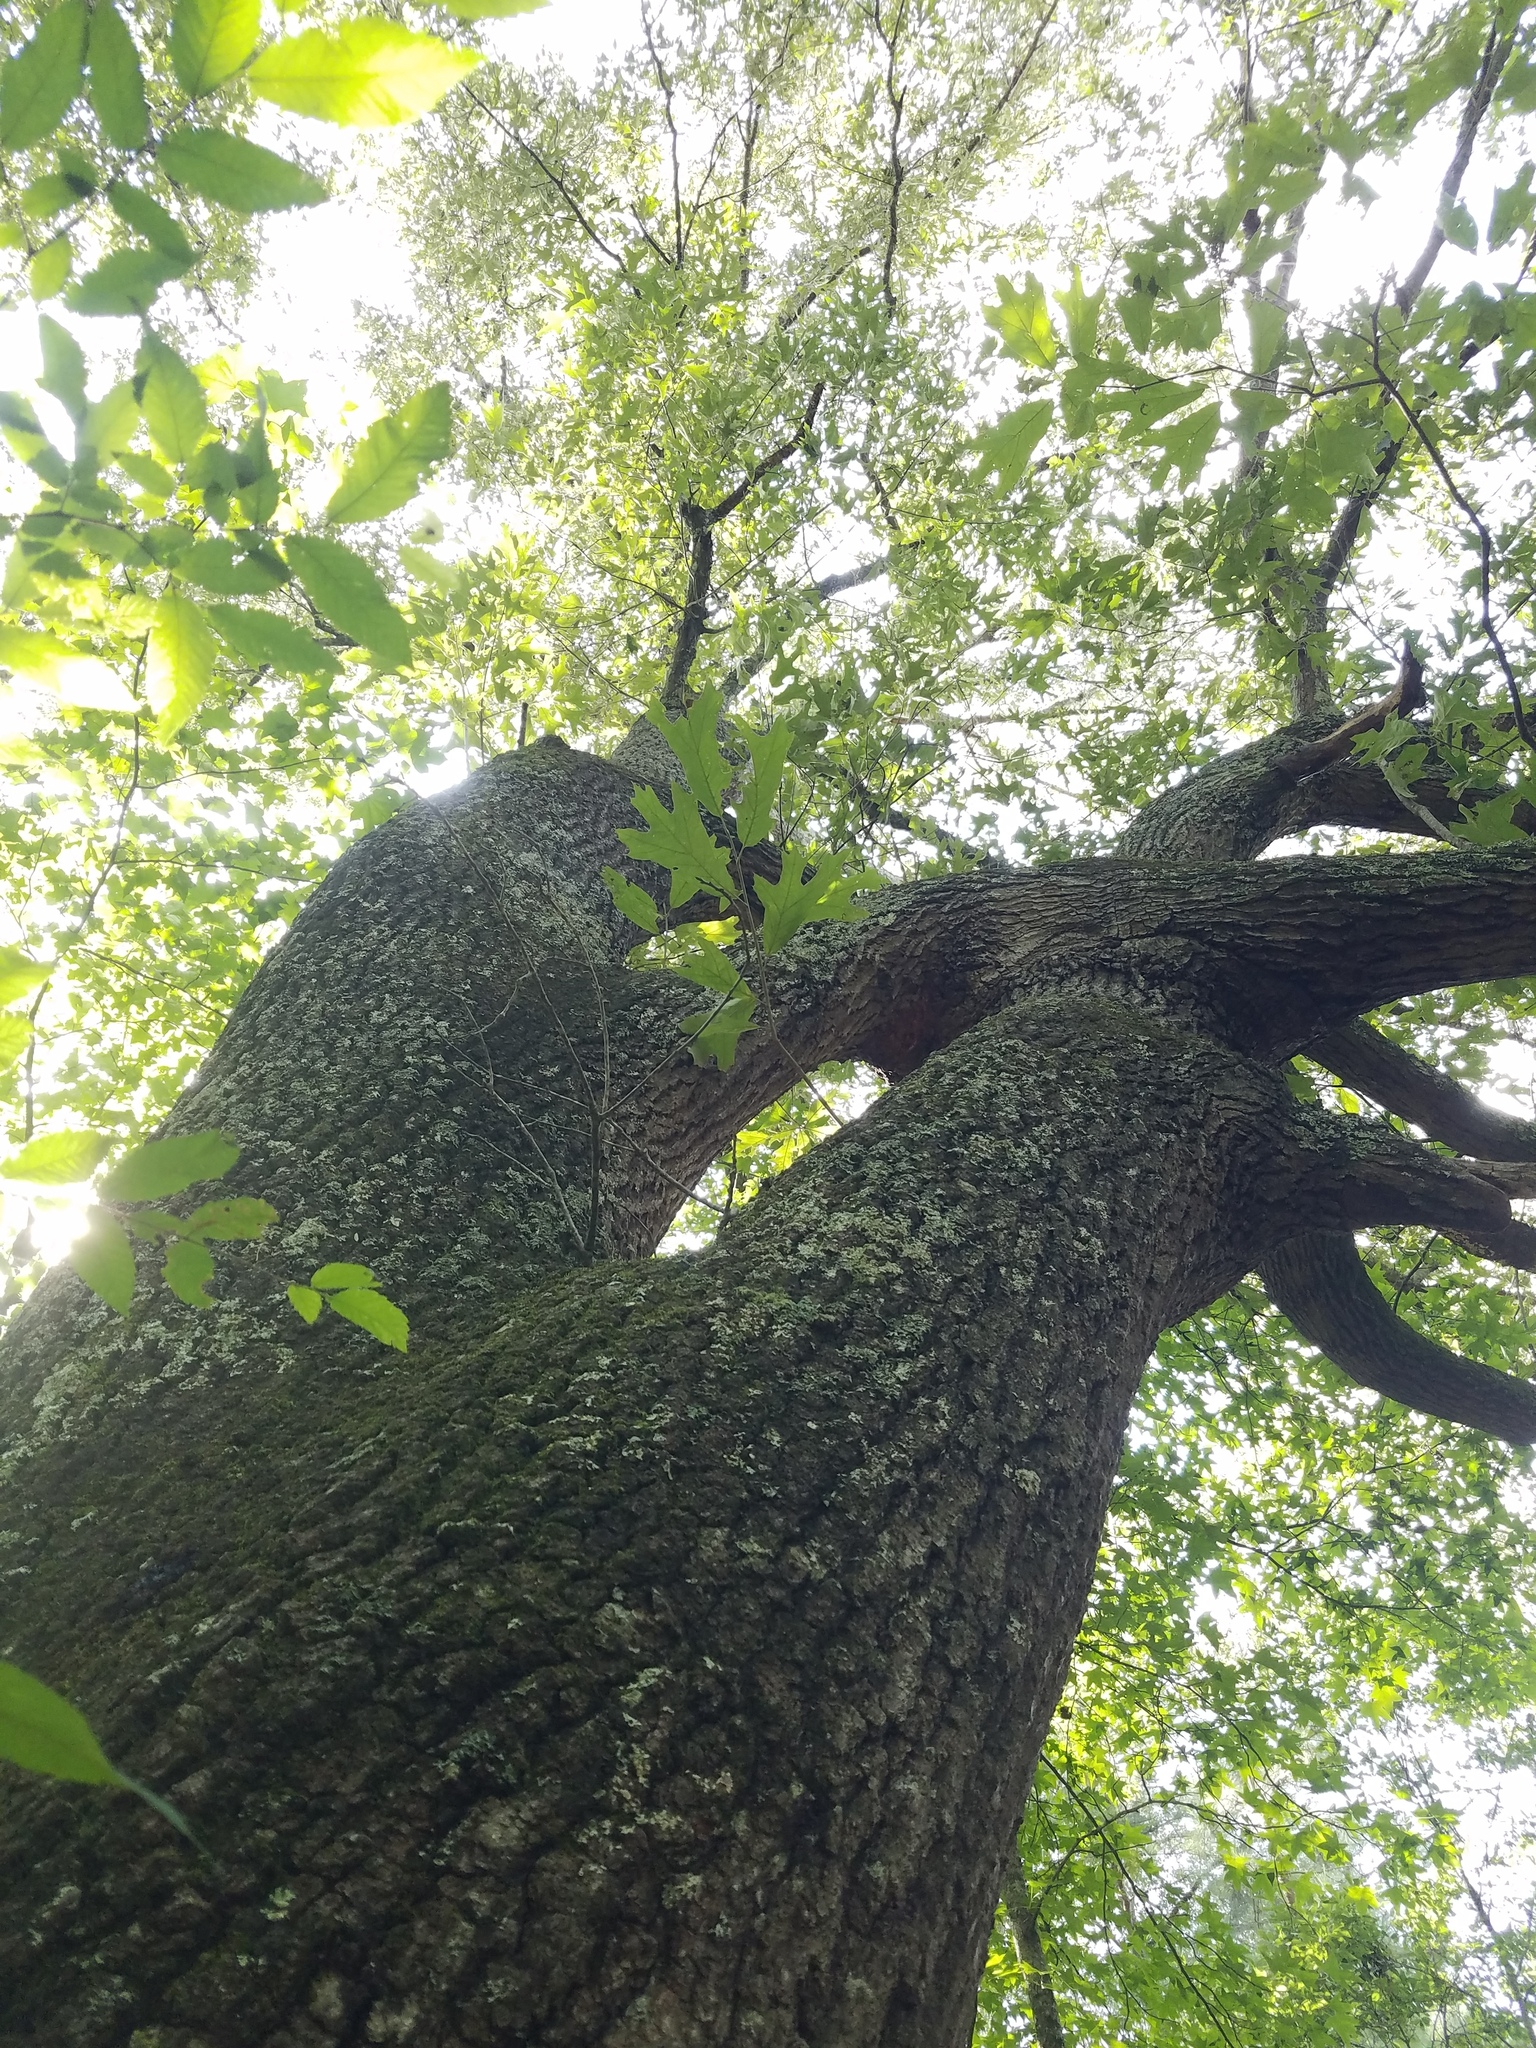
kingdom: Plantae
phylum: Tracheophyta
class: Magnoliopsida
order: Fagales
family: Fagaceae
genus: Quercus
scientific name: Quercus falcata
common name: Southern red oak
